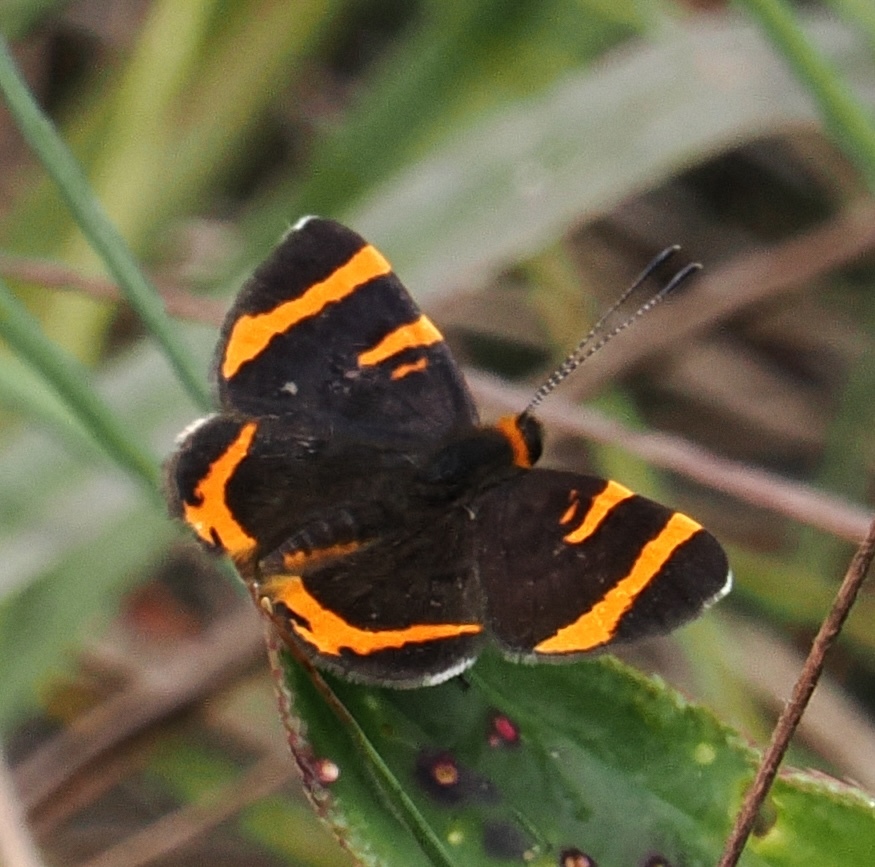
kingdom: Animalia
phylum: Arthropoda
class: Insecta
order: Lepidoptera
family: Lycaenidae
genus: Stichelia
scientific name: Stichelia dukinfieldia
